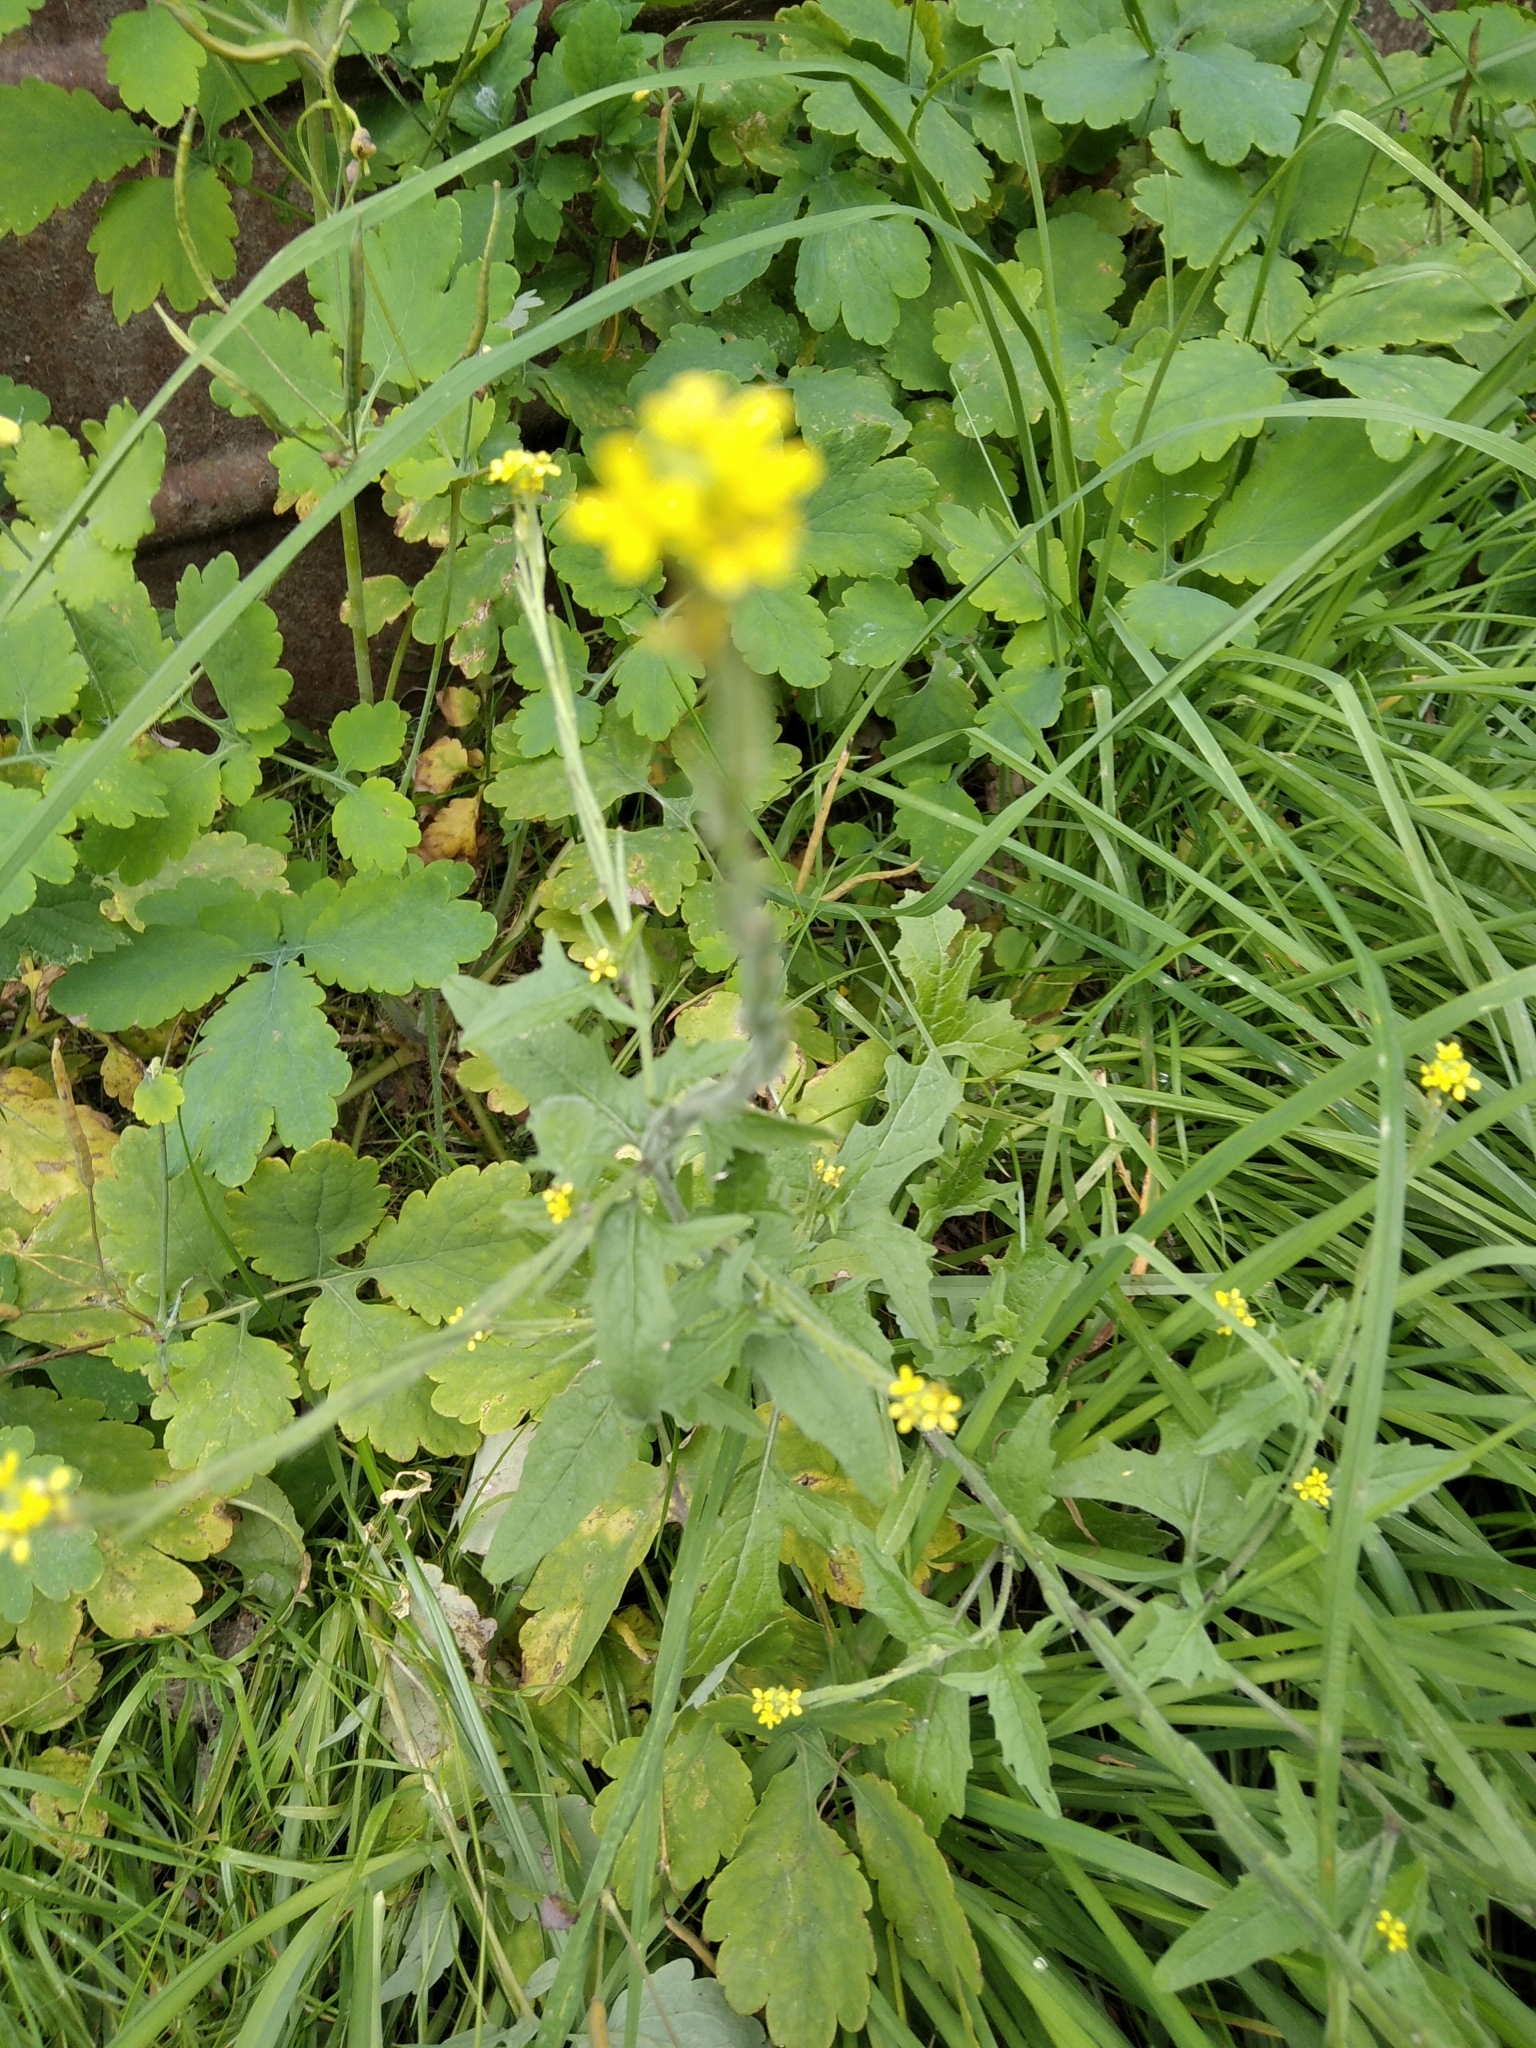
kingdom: Plantae
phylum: Tracheophyta
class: Magnoliopsida
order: Brassicales
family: Brassicaceae
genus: Sisymbrium
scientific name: Sisymbrium officinale
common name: Hedge mustard
